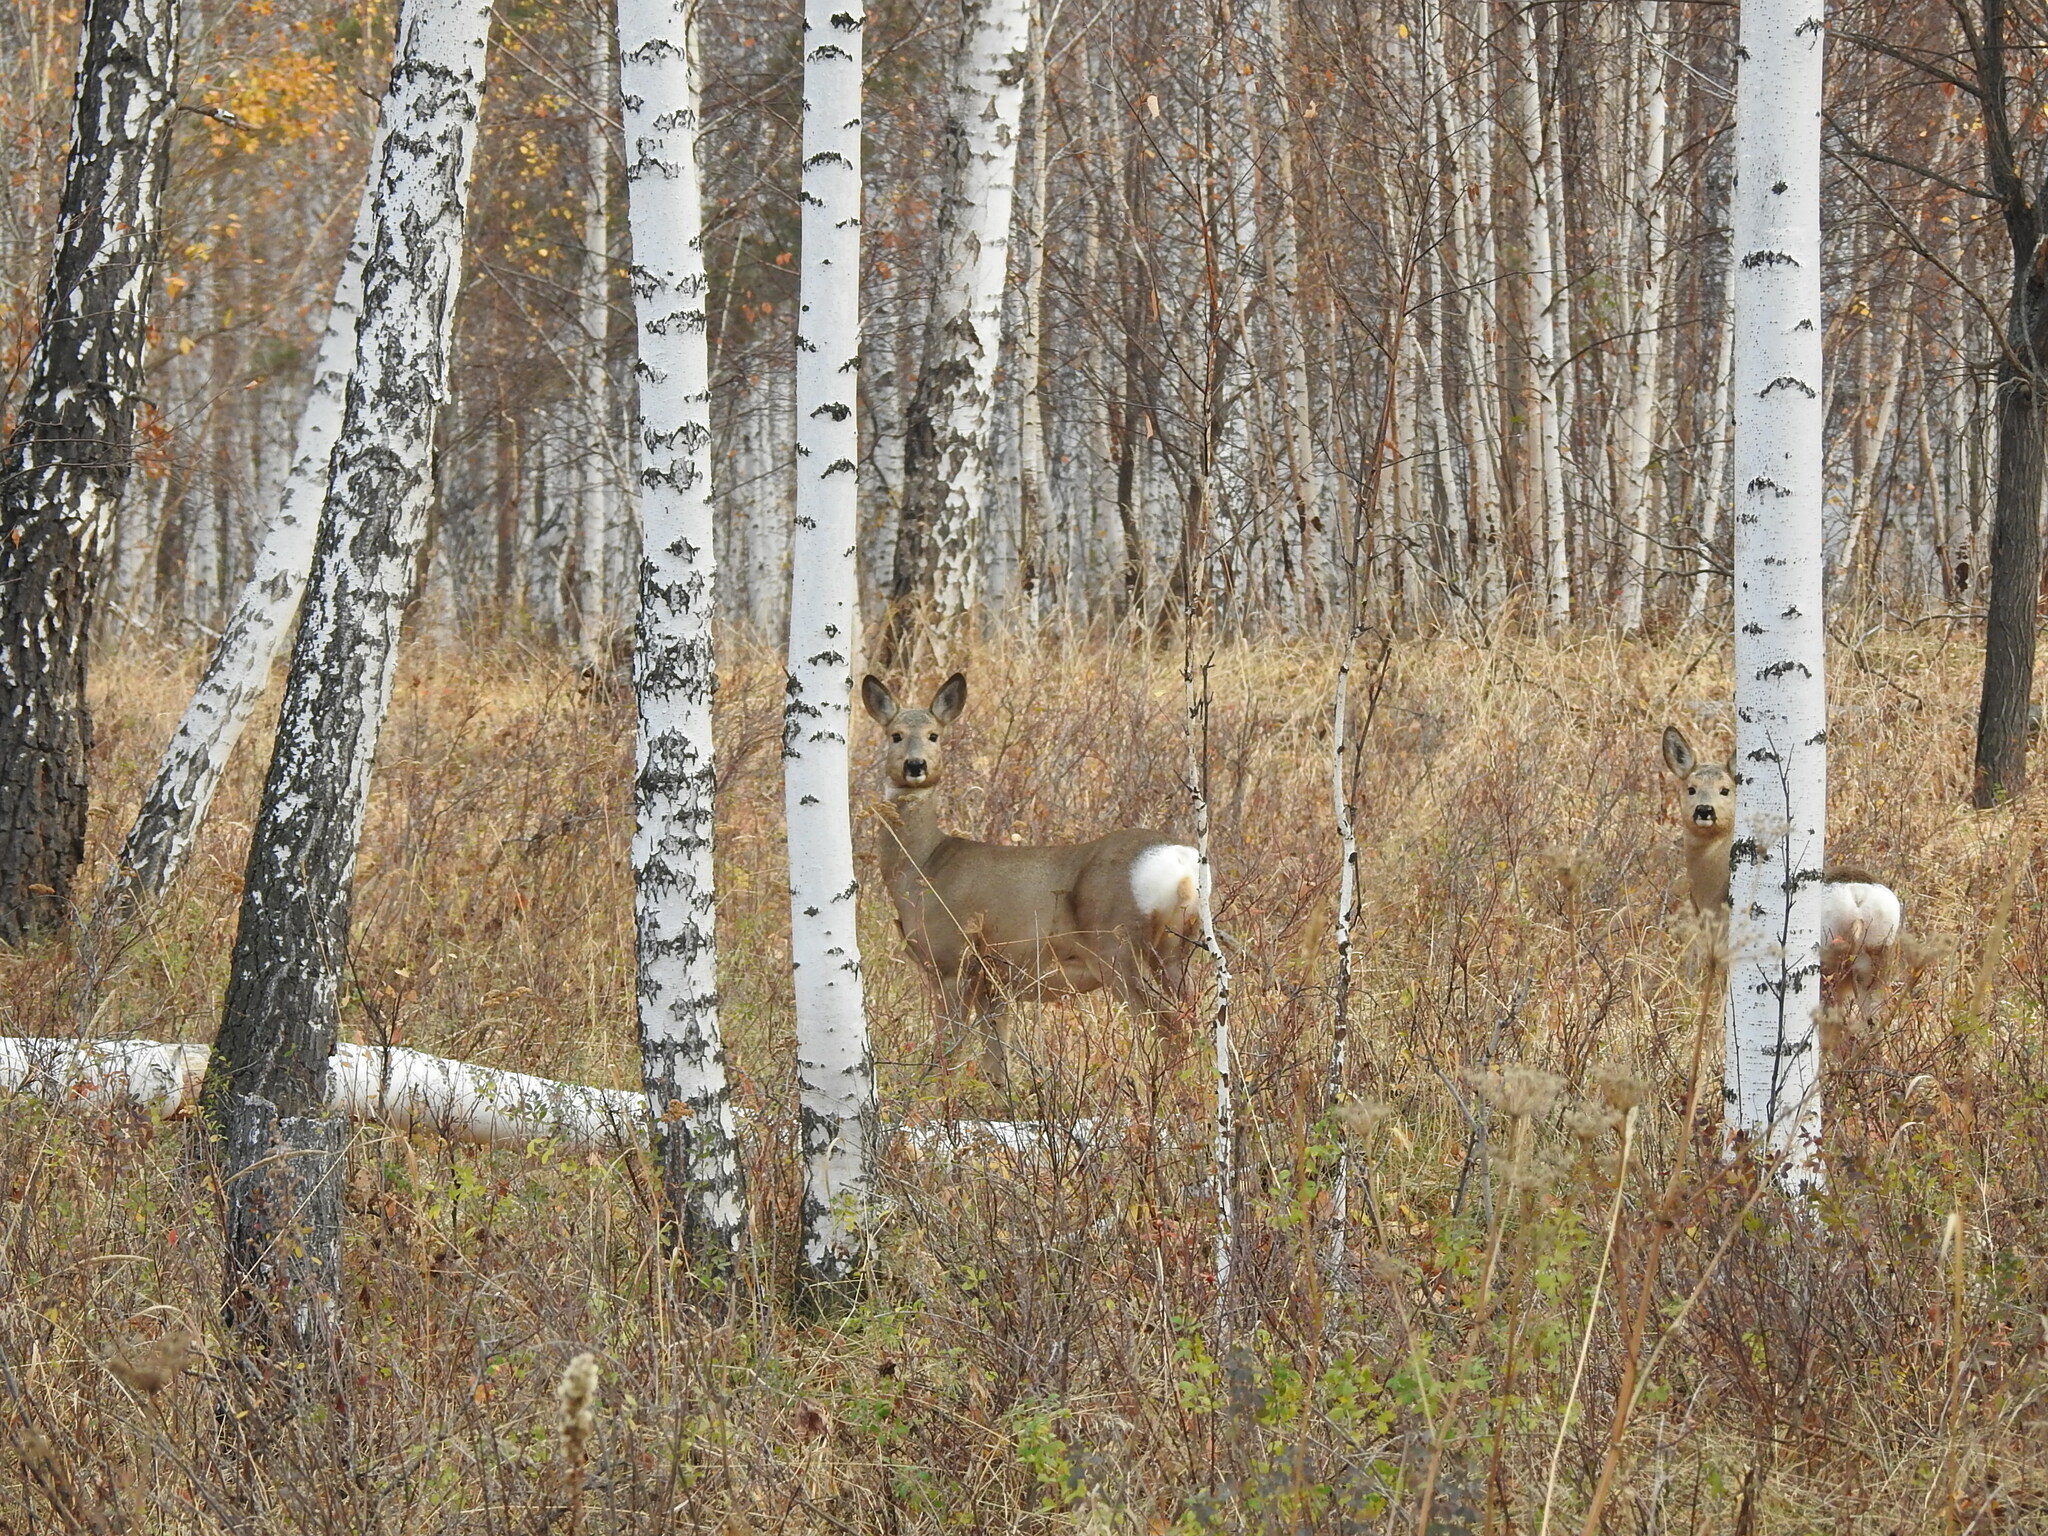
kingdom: Animalia
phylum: Chordata
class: Mammalia
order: Artiodactyla
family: Cervidae
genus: Capreolus
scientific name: Capreolus pygargus
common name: Siberian roe
